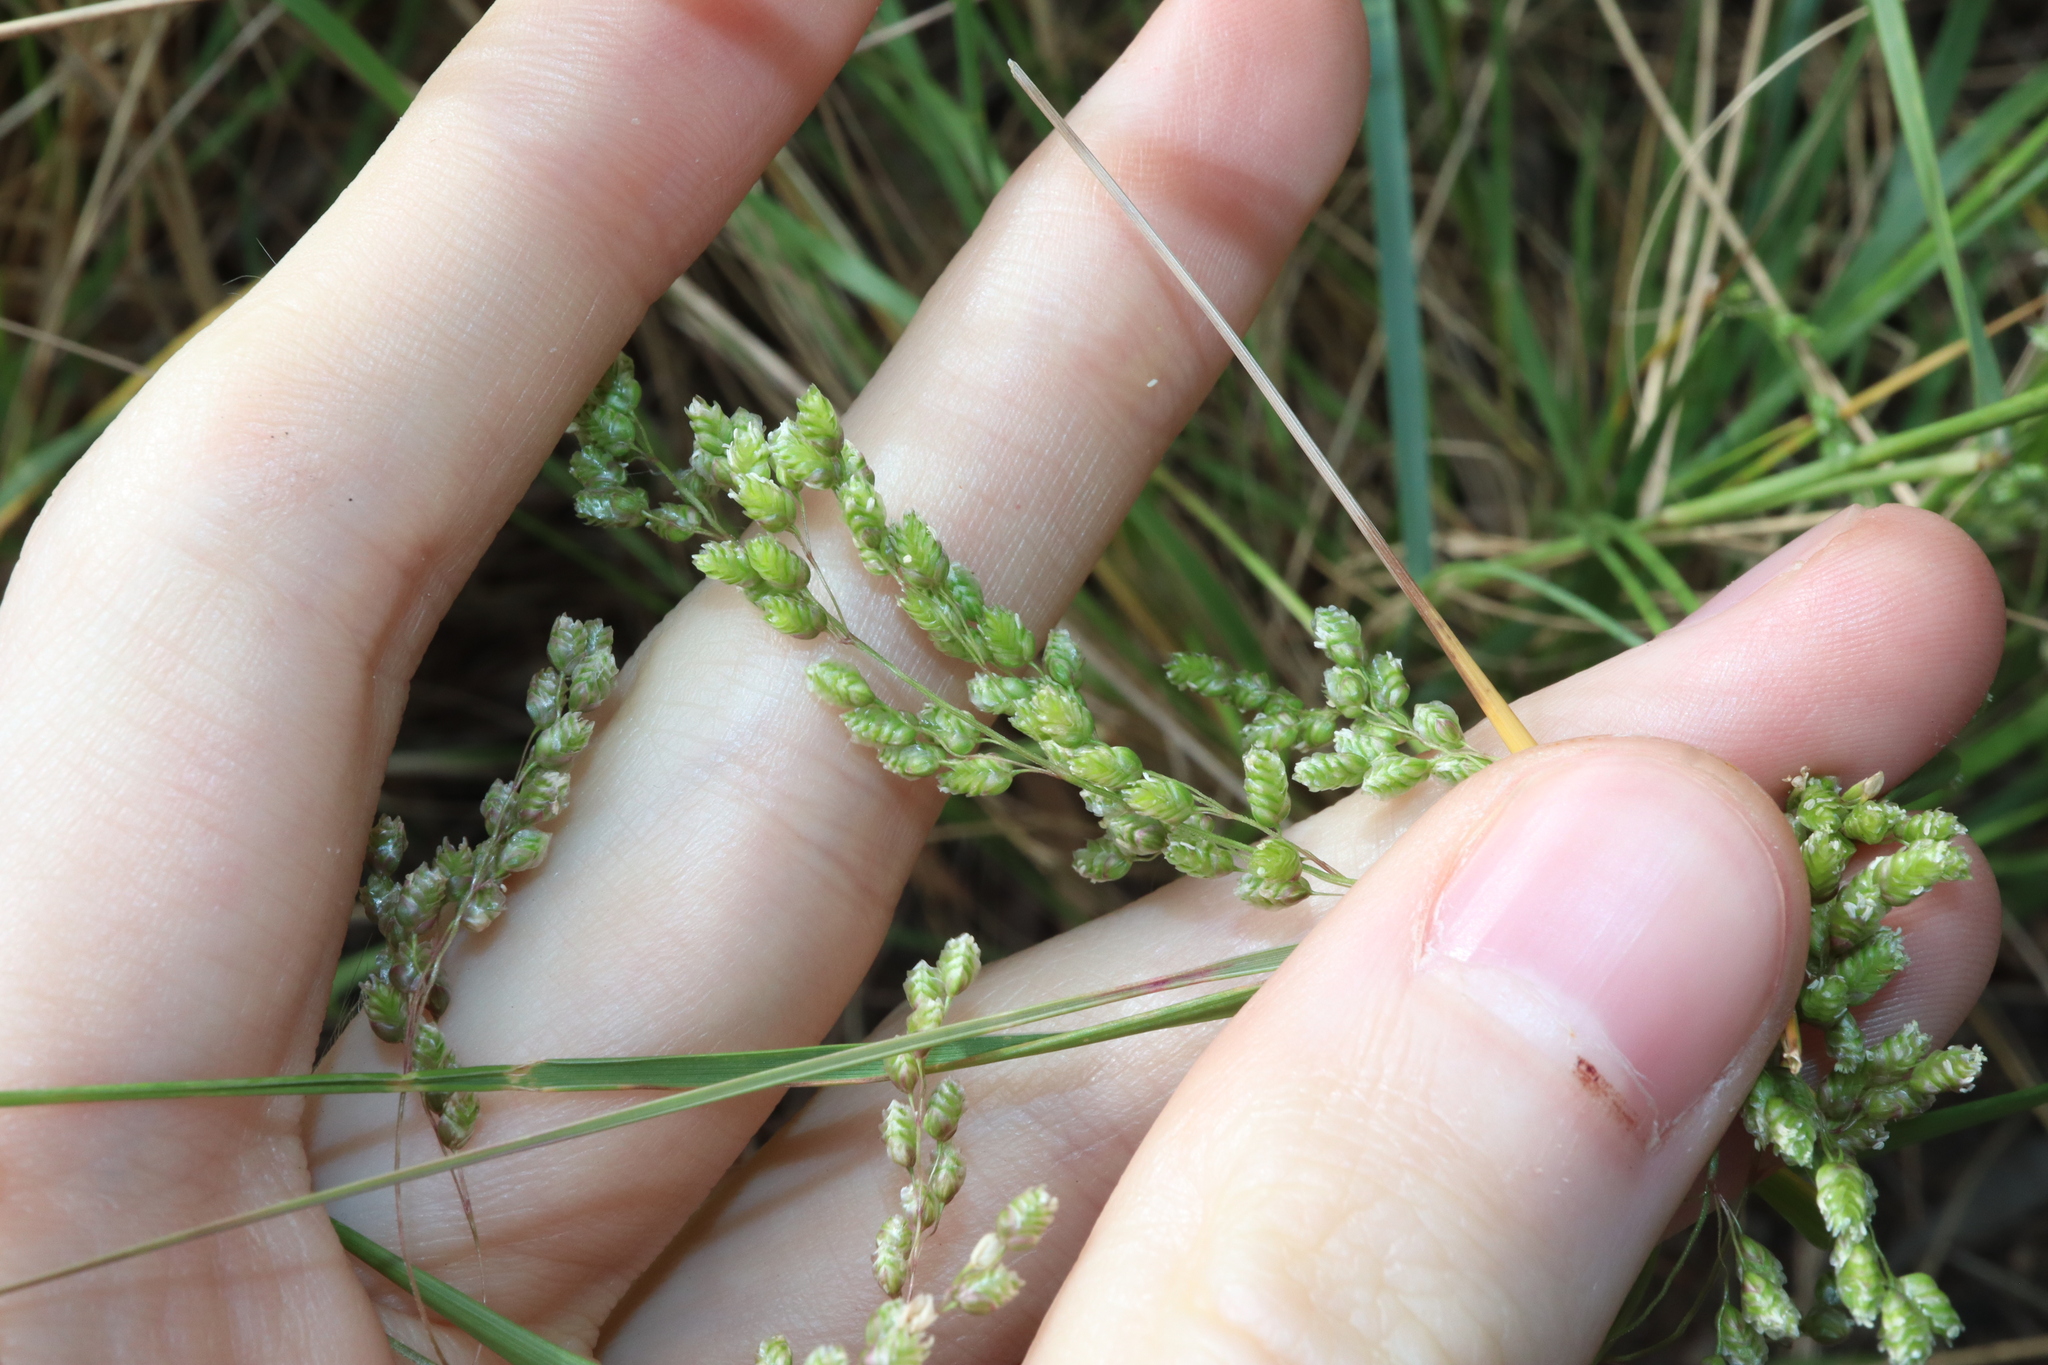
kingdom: Plantae
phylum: Tracheophyta
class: Liliopsida
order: Poales
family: Poaceae
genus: Chascolytrum
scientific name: Chascolytrum subaristatum
